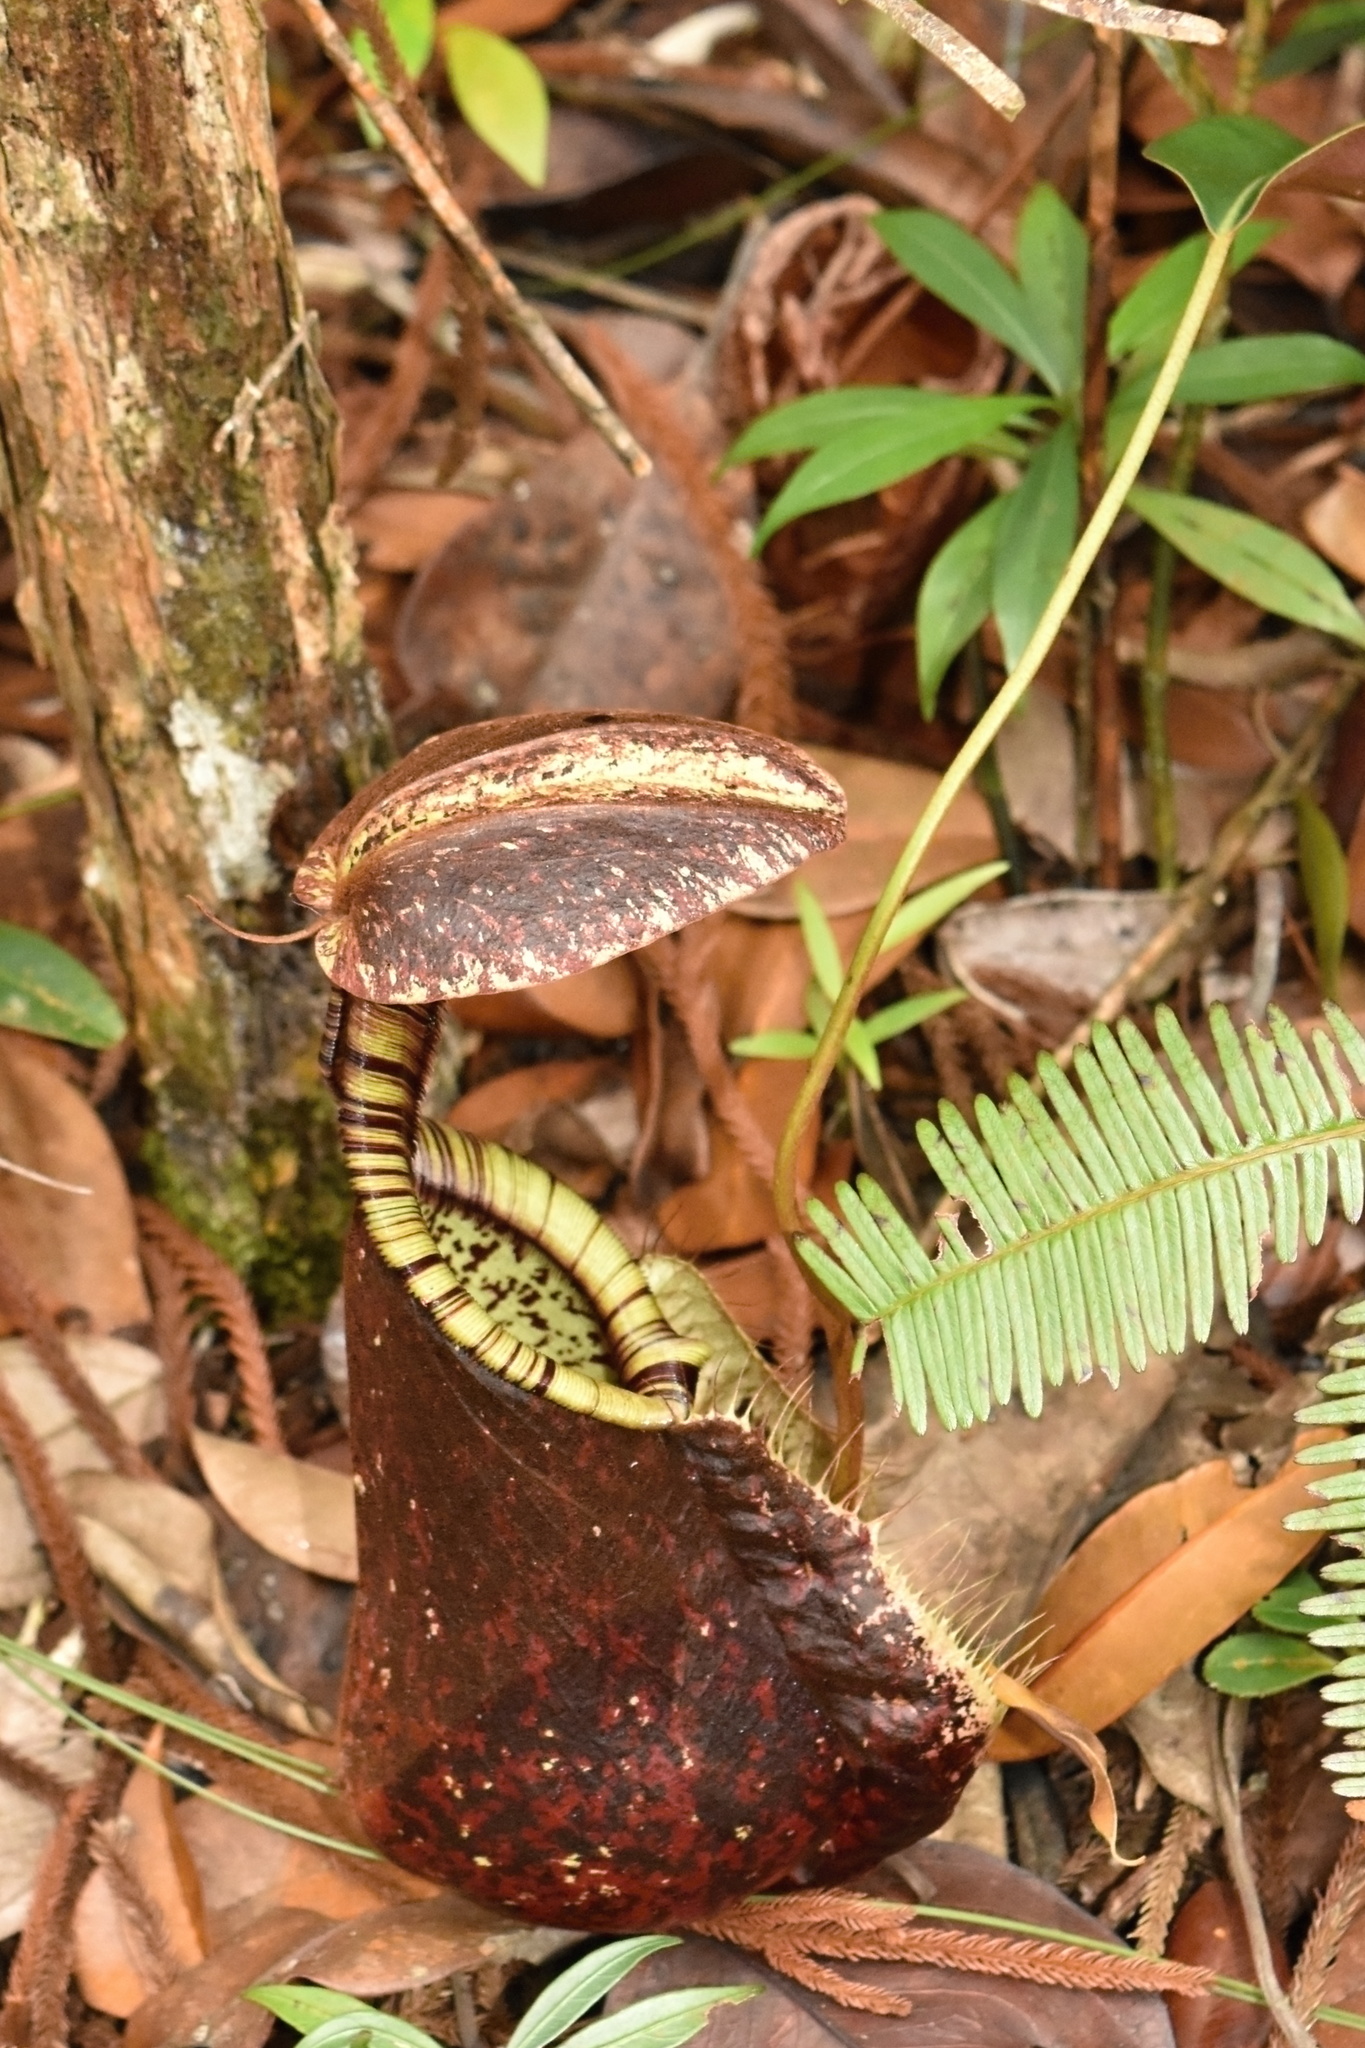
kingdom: Plantae
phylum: Tracheophyta
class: Magnoliopsida
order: Caryophyllales
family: Nepenthaceae
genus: Nepenthes
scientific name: Nepenthes rafflesiana
